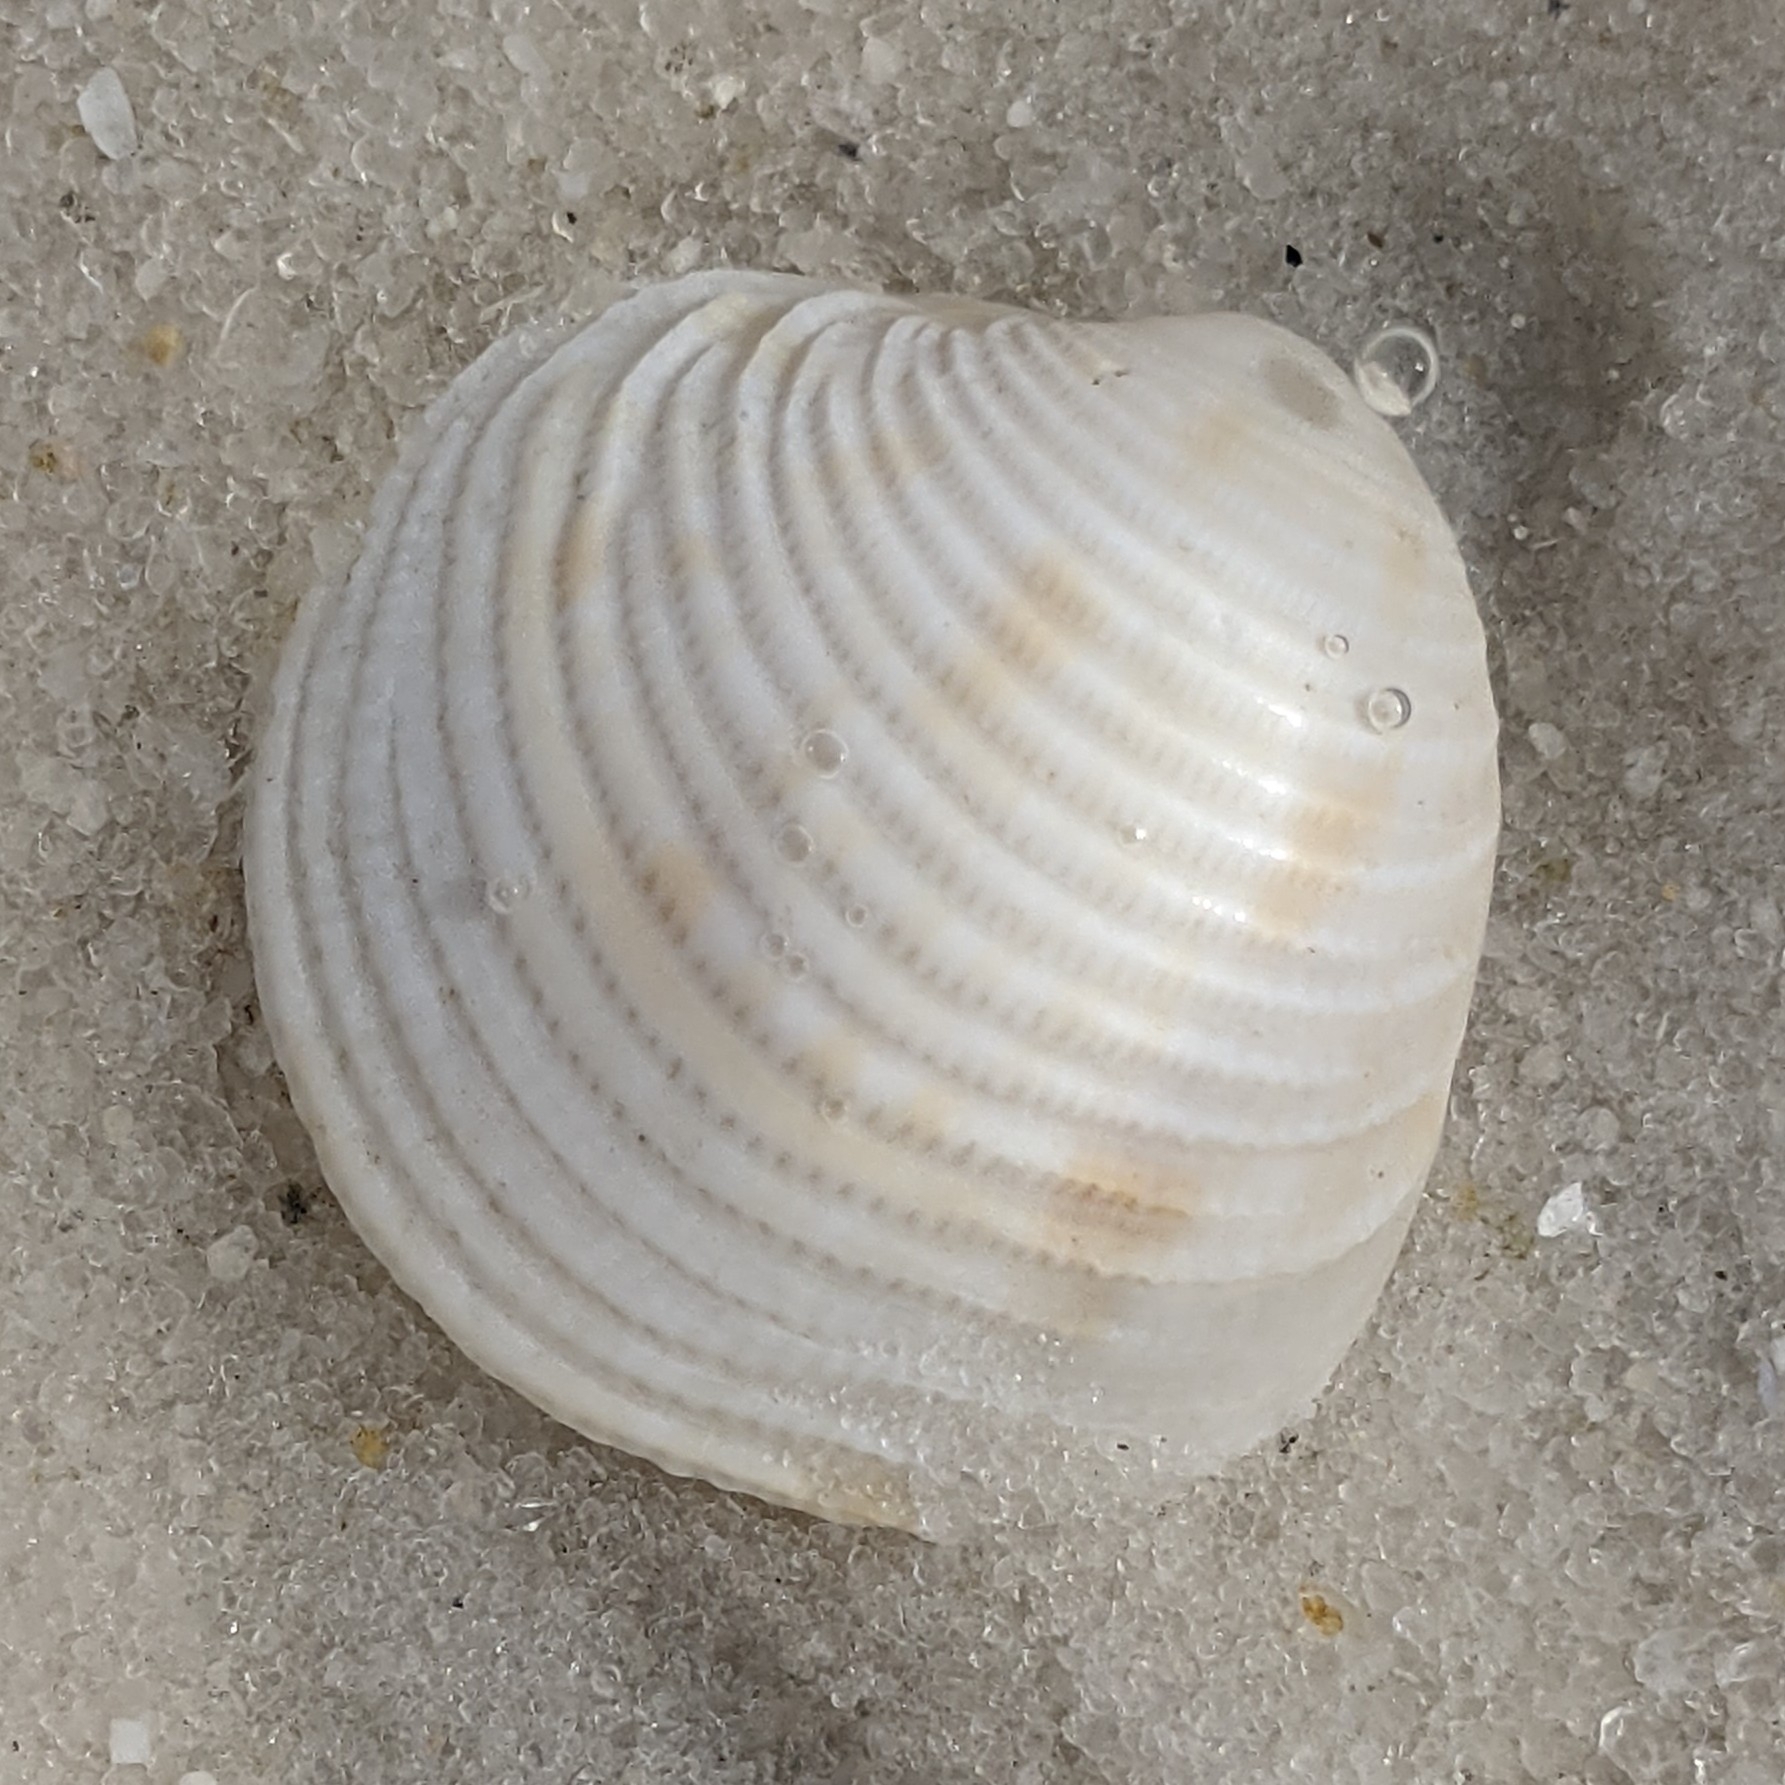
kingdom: Animalia
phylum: Mollusca
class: Bivalvia
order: Venerida
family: Veneridae
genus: Chionopsis
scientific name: Chionopsis intapurpurea
